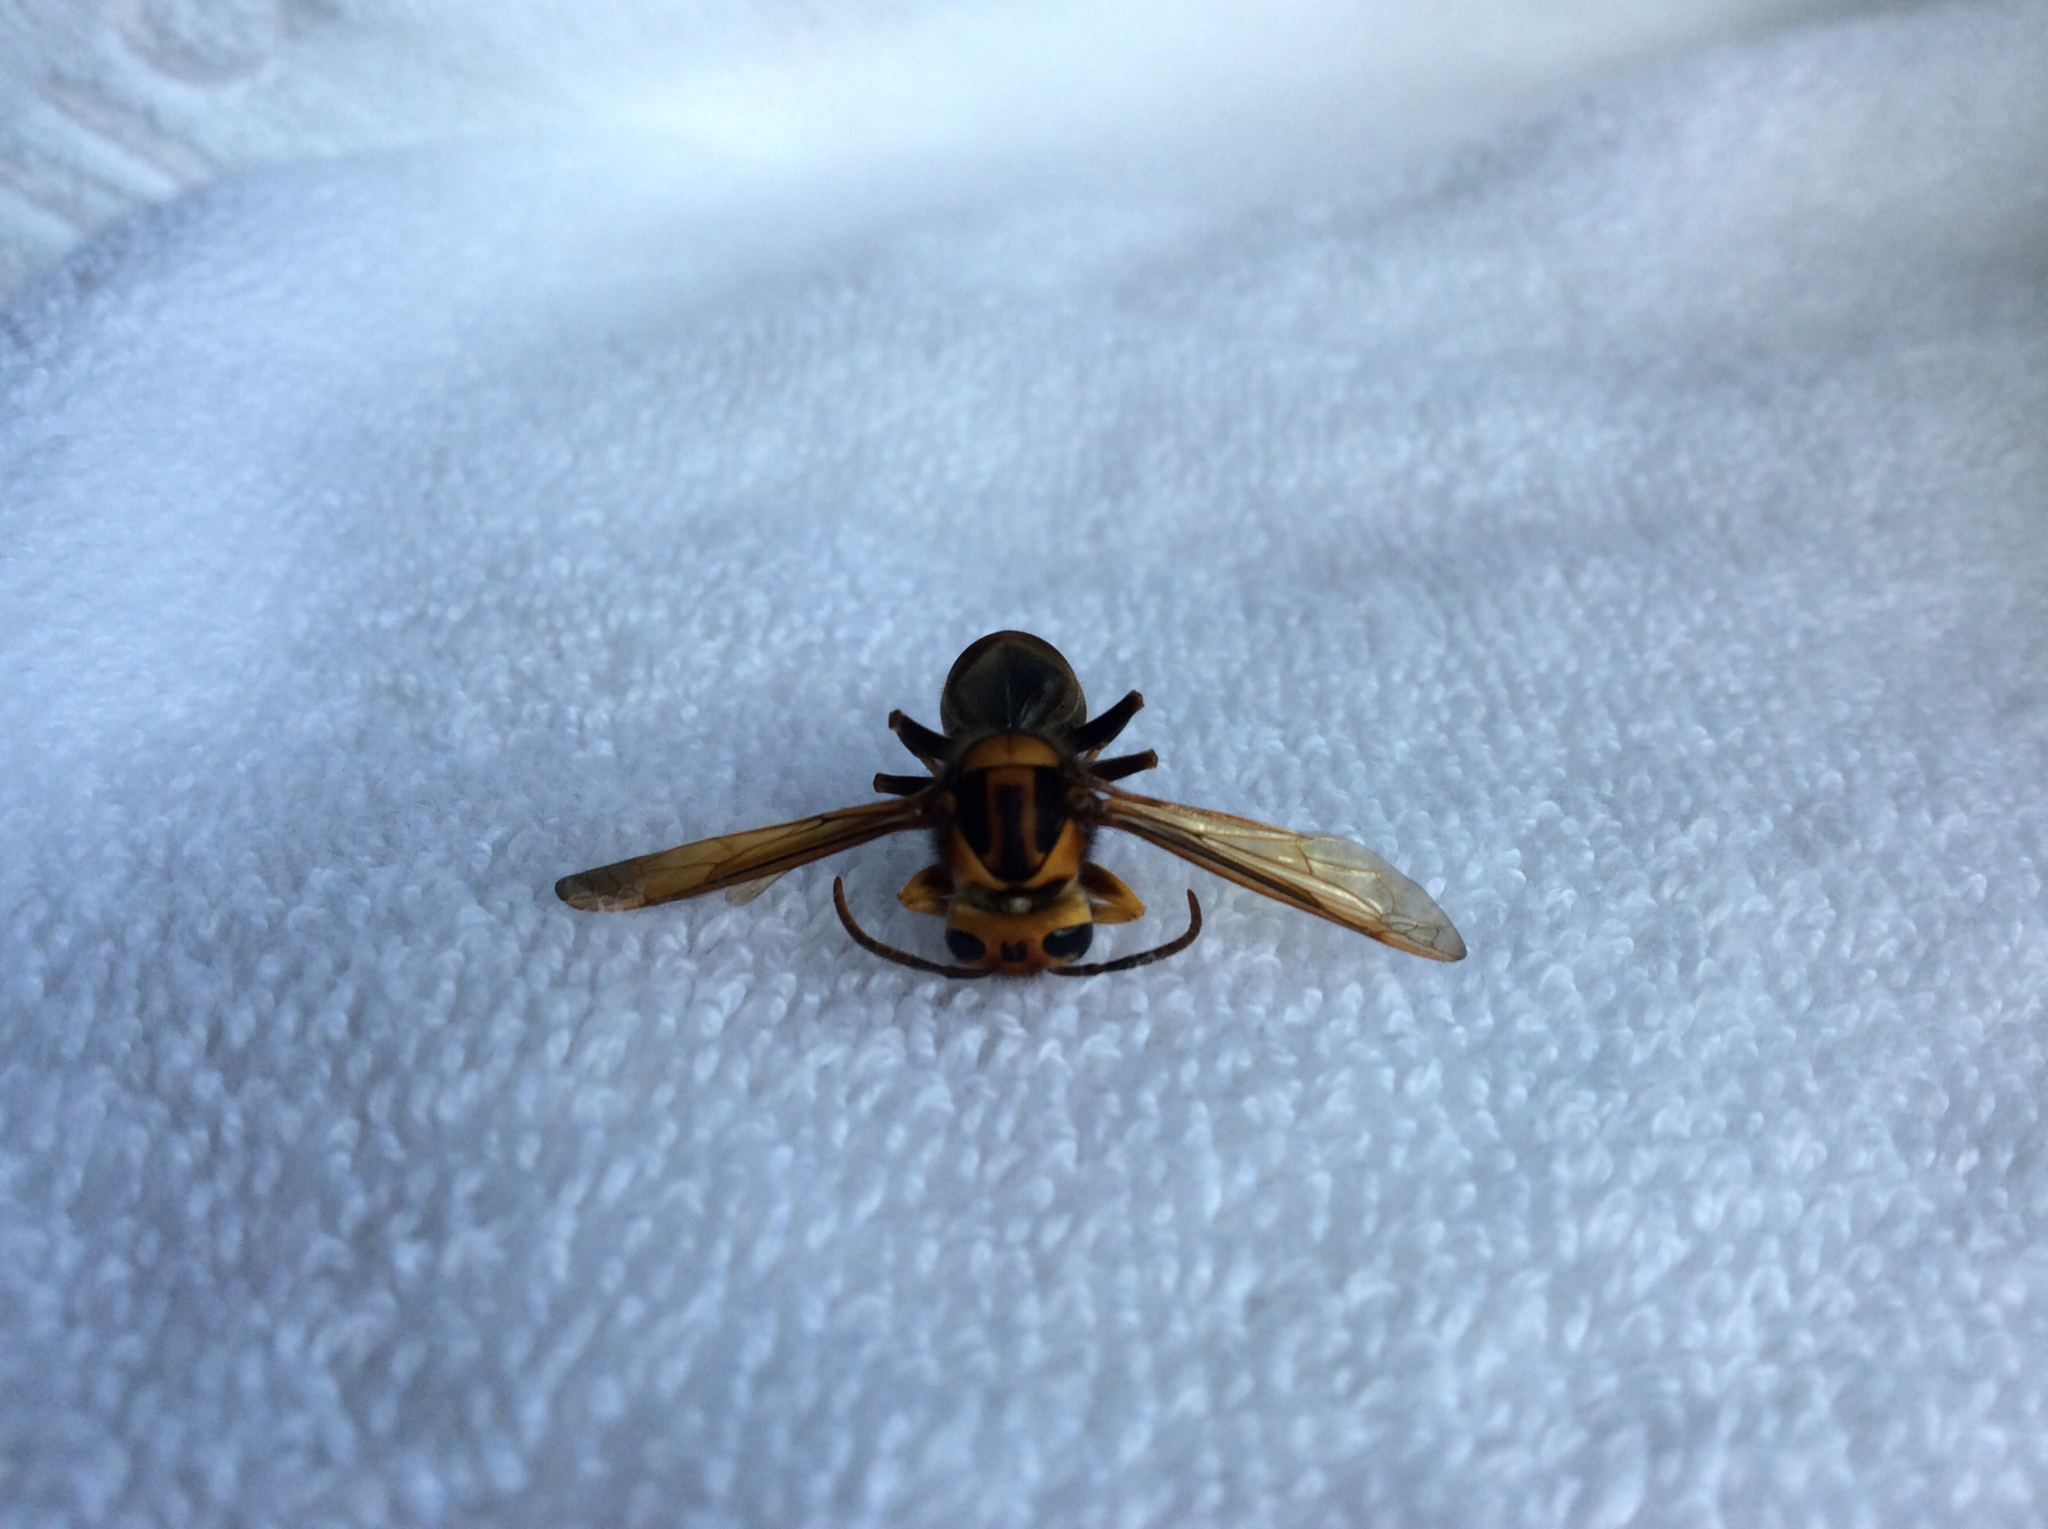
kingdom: Animalia
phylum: Arthropoda
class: Insecta
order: Hymenoptera
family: Vespidae
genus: Vespa
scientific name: Vespa velutina
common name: Asian hornet
